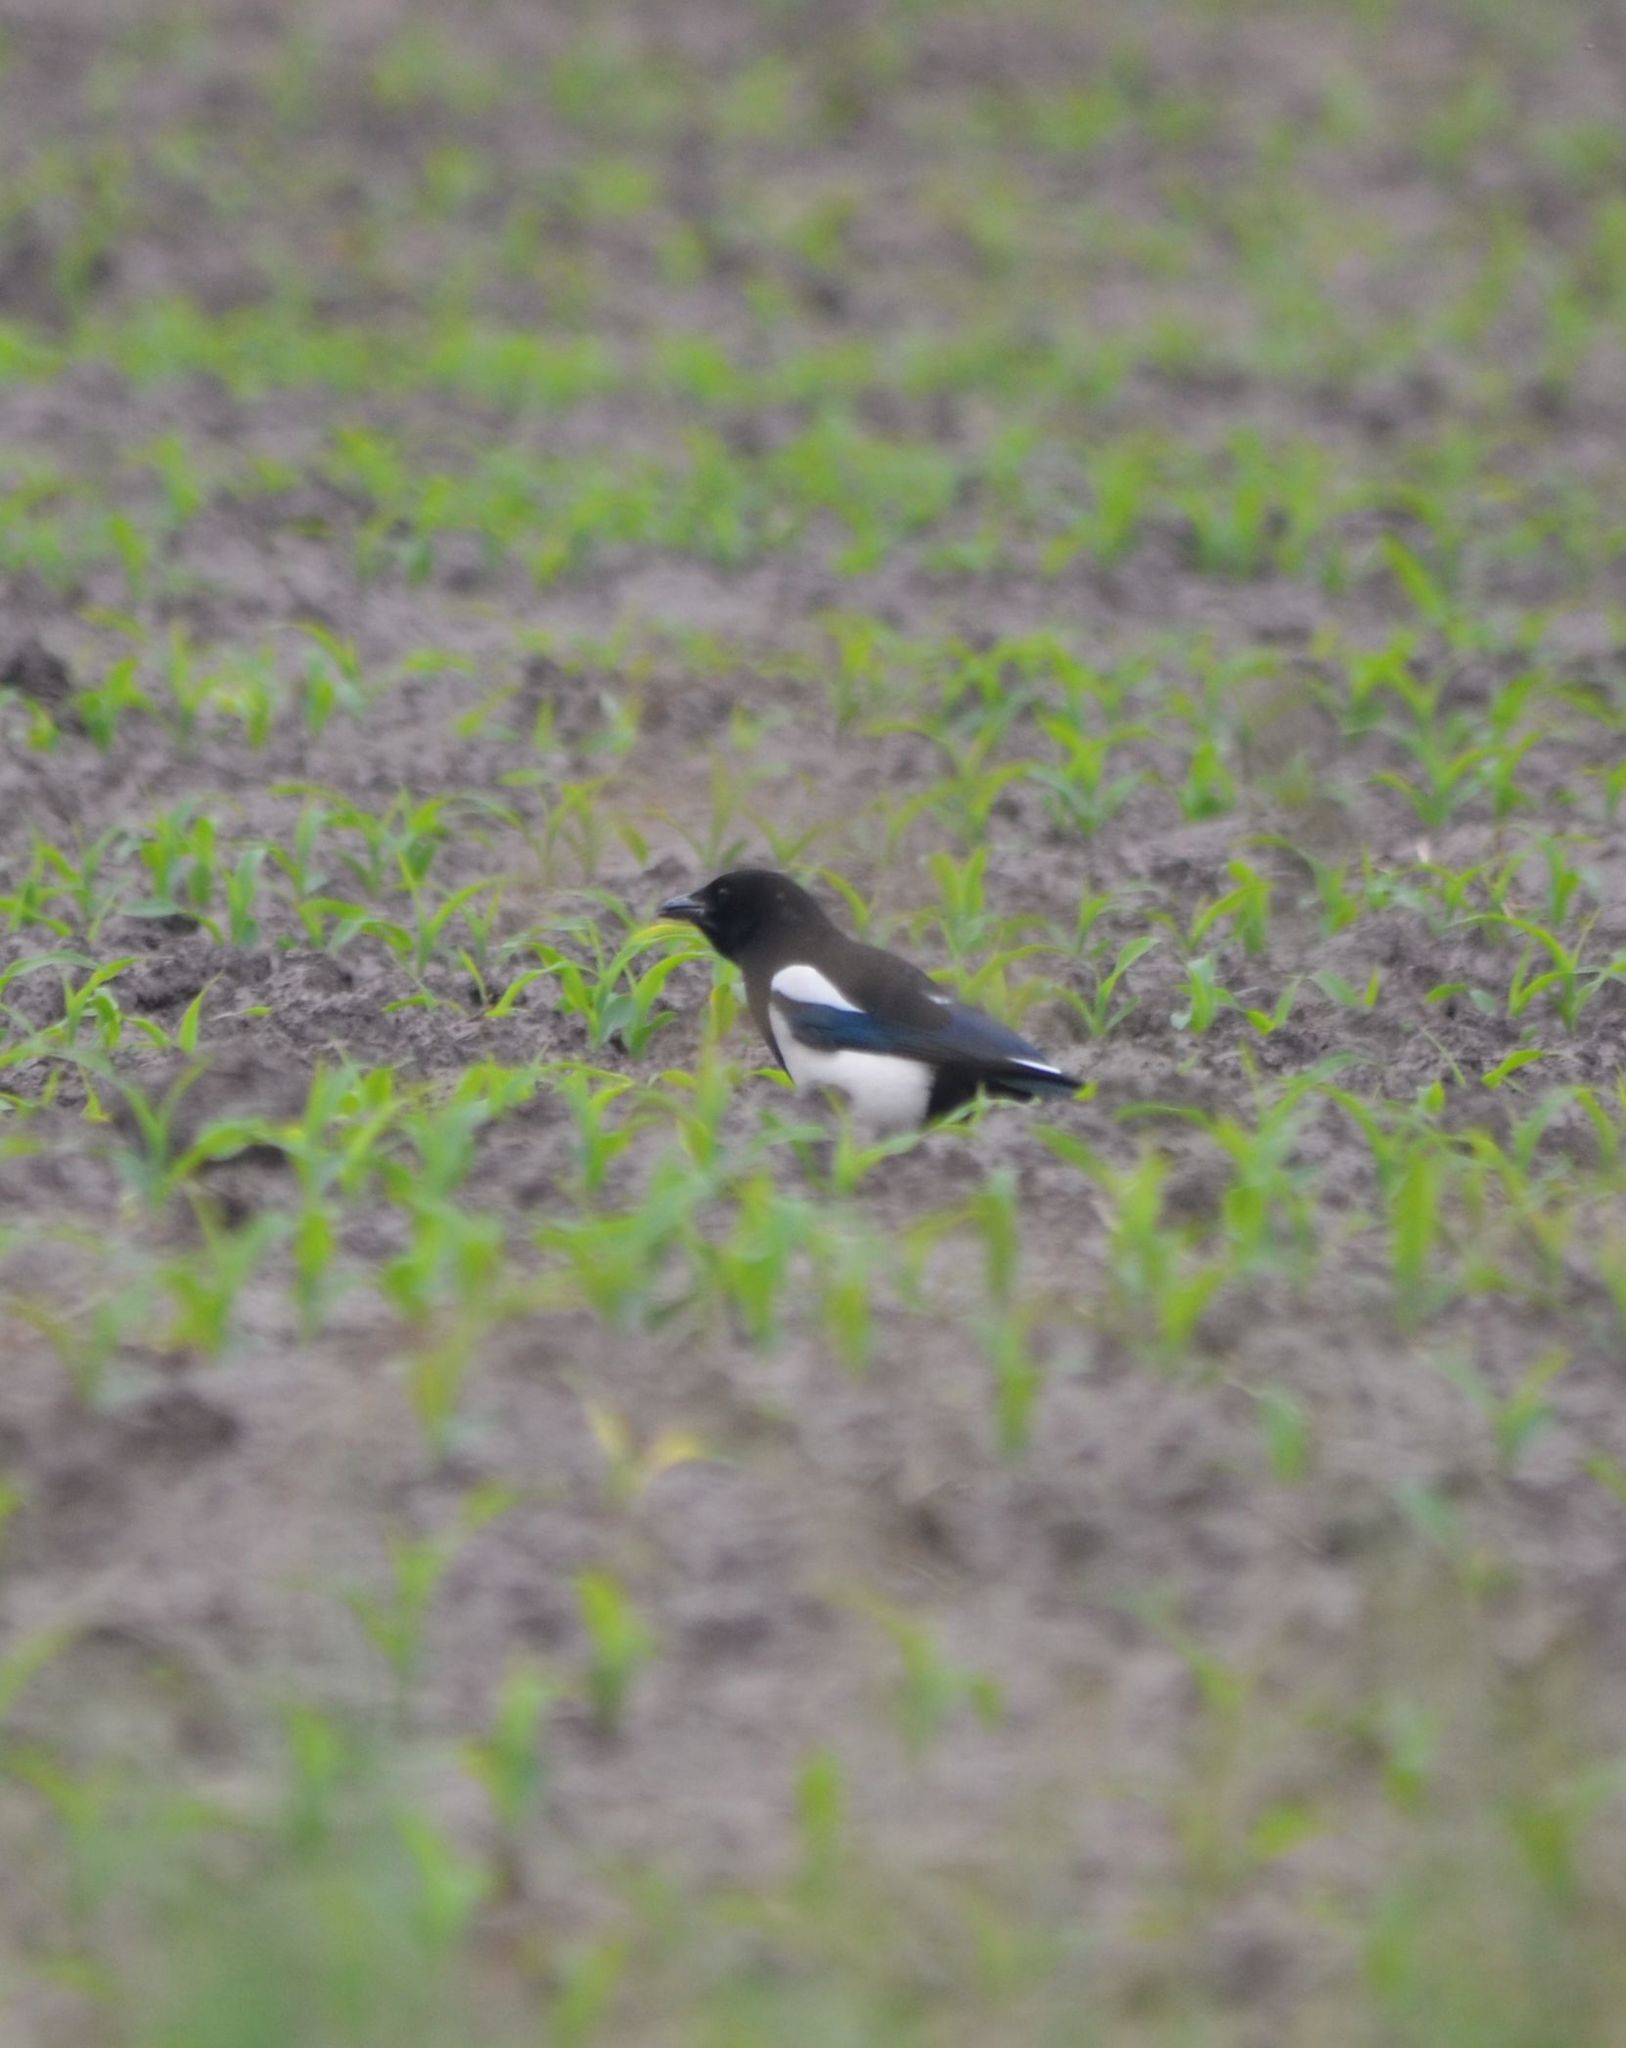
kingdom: Animalia
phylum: Chordata
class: Aves
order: Passeriformes
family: Corvidae
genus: Pica
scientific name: Pica pica
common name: Eurasian magpie
